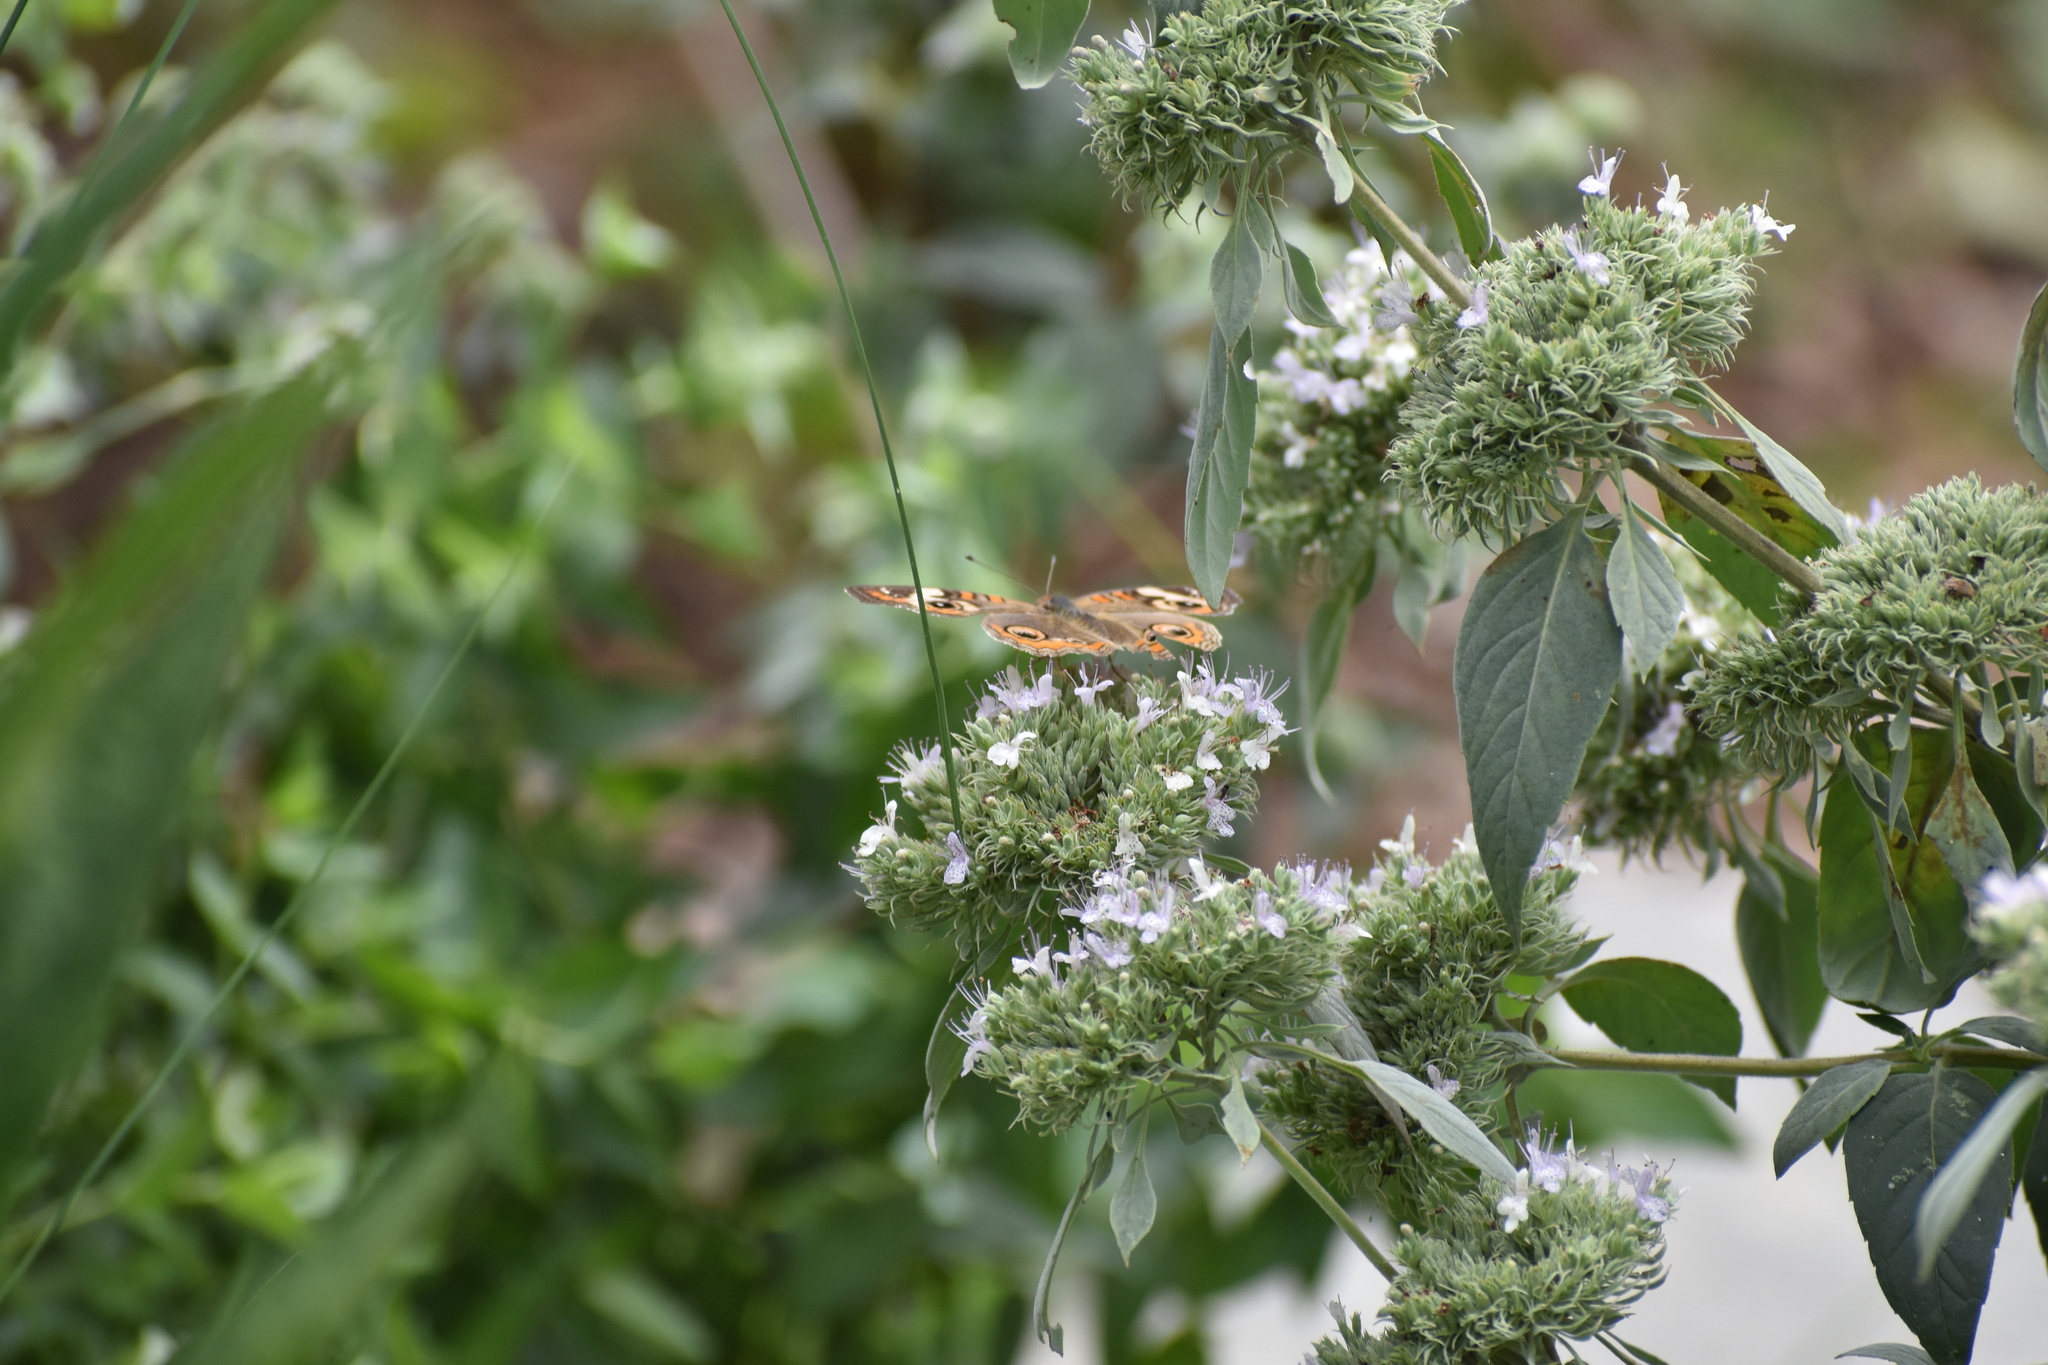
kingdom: Animalia
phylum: Arthropoda
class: Insecta
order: Lepidoptera
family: Nymphalidae
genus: Junonia
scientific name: Junonia coenia
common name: Common buckeye
